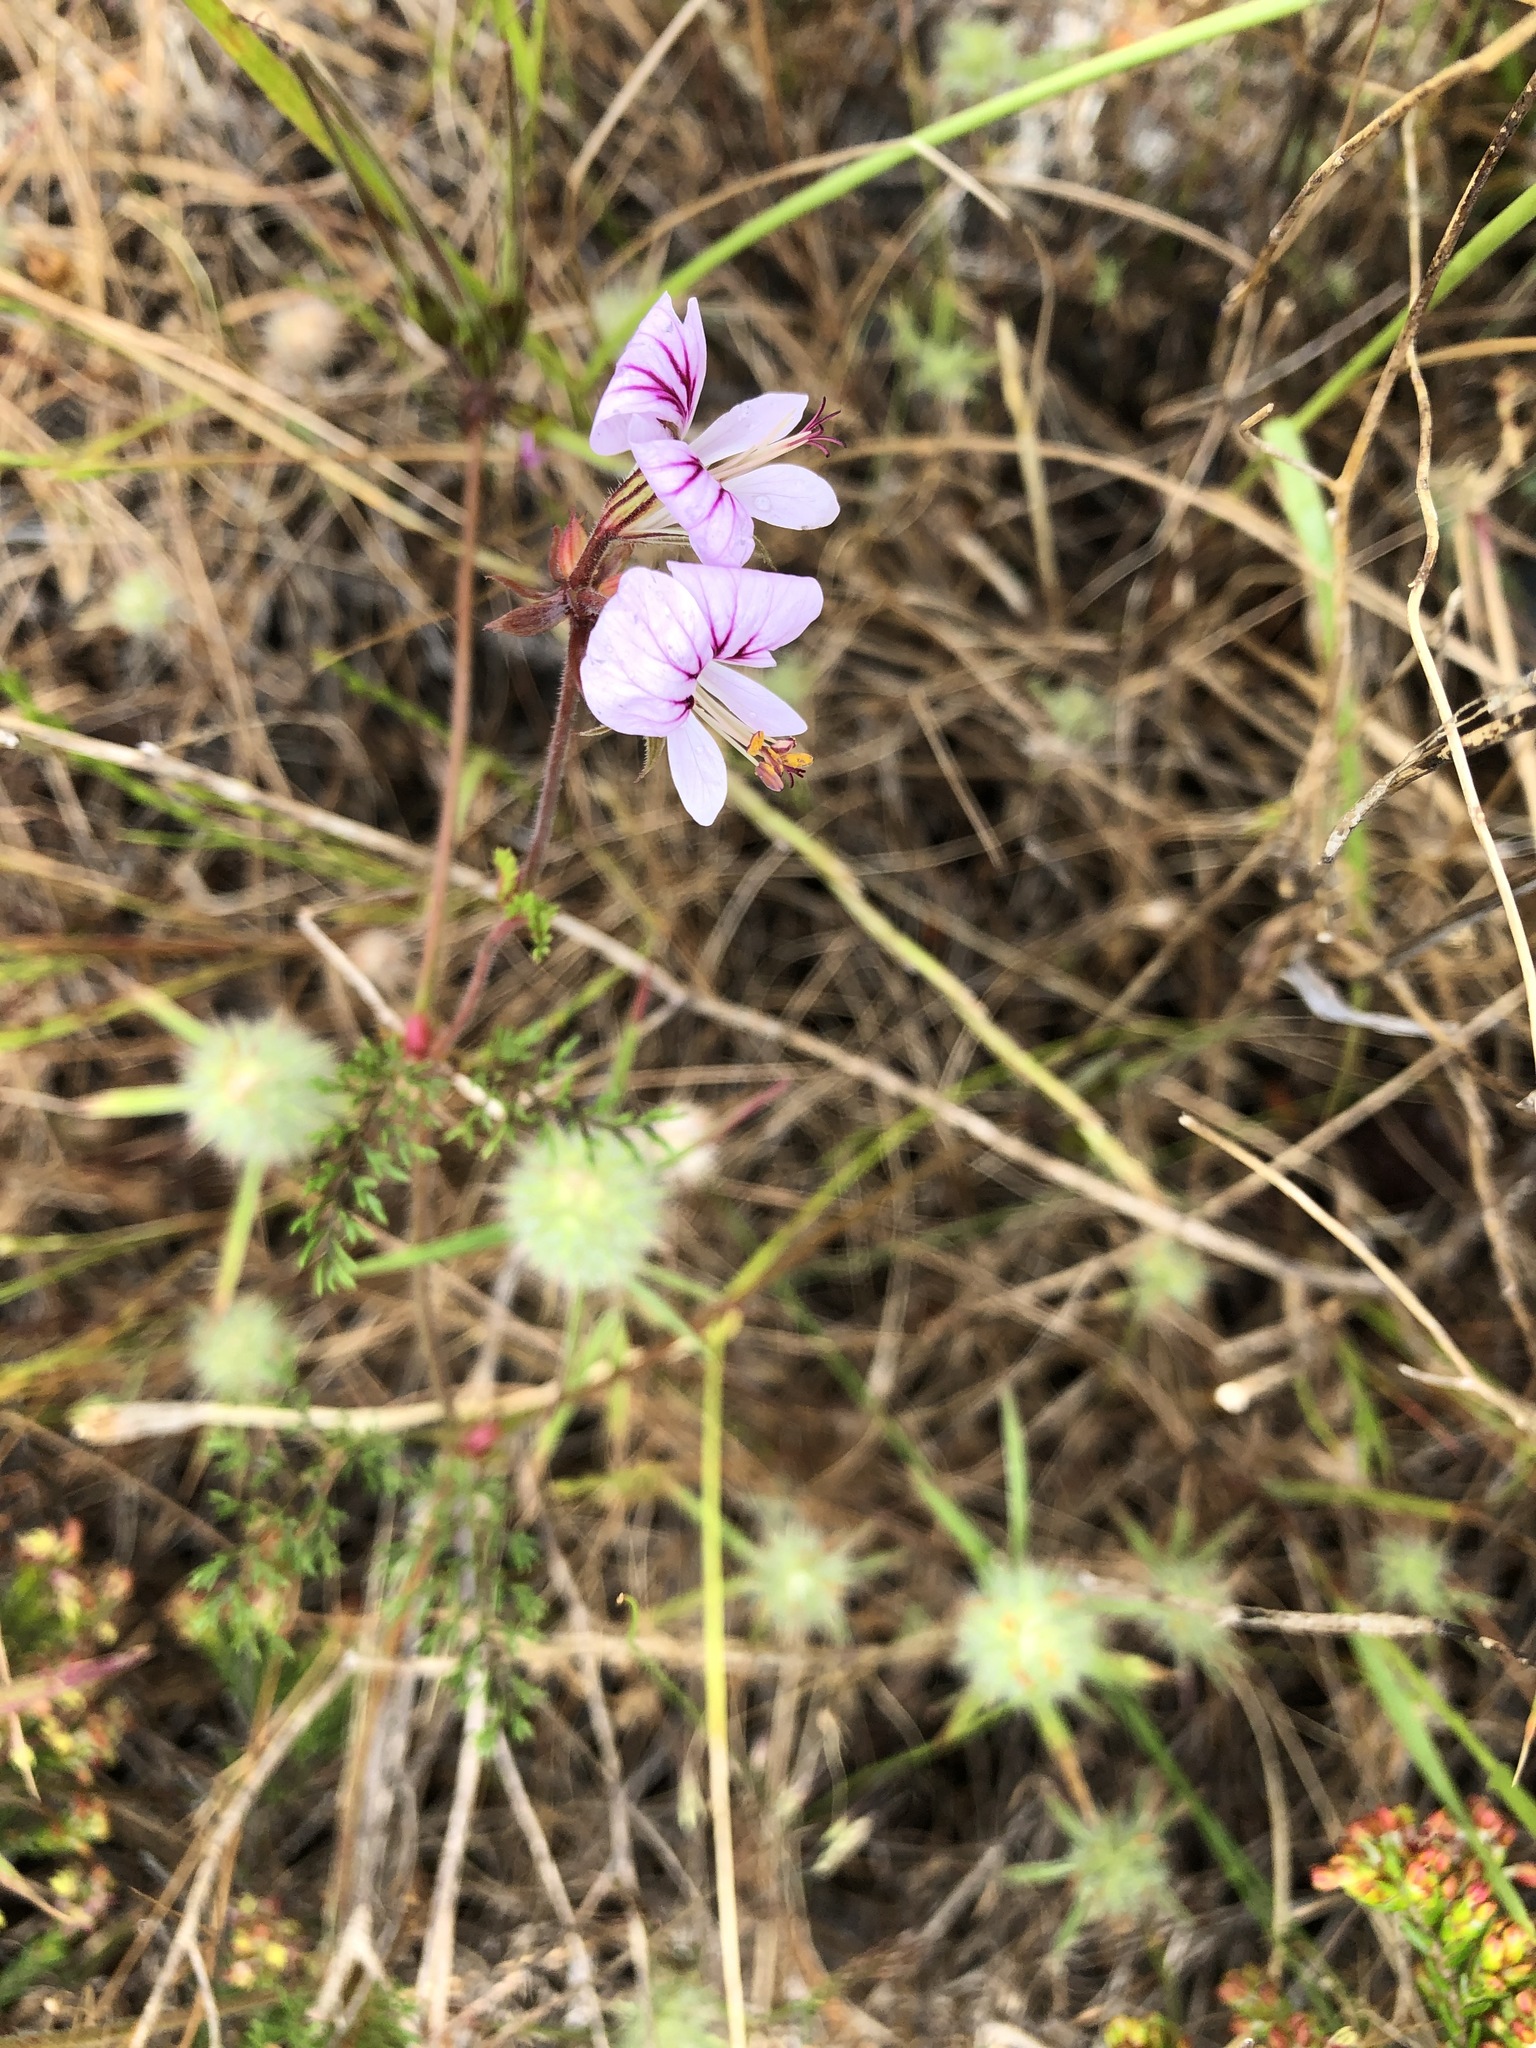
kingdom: Plantae
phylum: Tracheophyta
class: Magnoliopsida
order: Geraniales
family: Geraniaceae
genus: Pelargonium
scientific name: Pelargonium myrrhifolium
